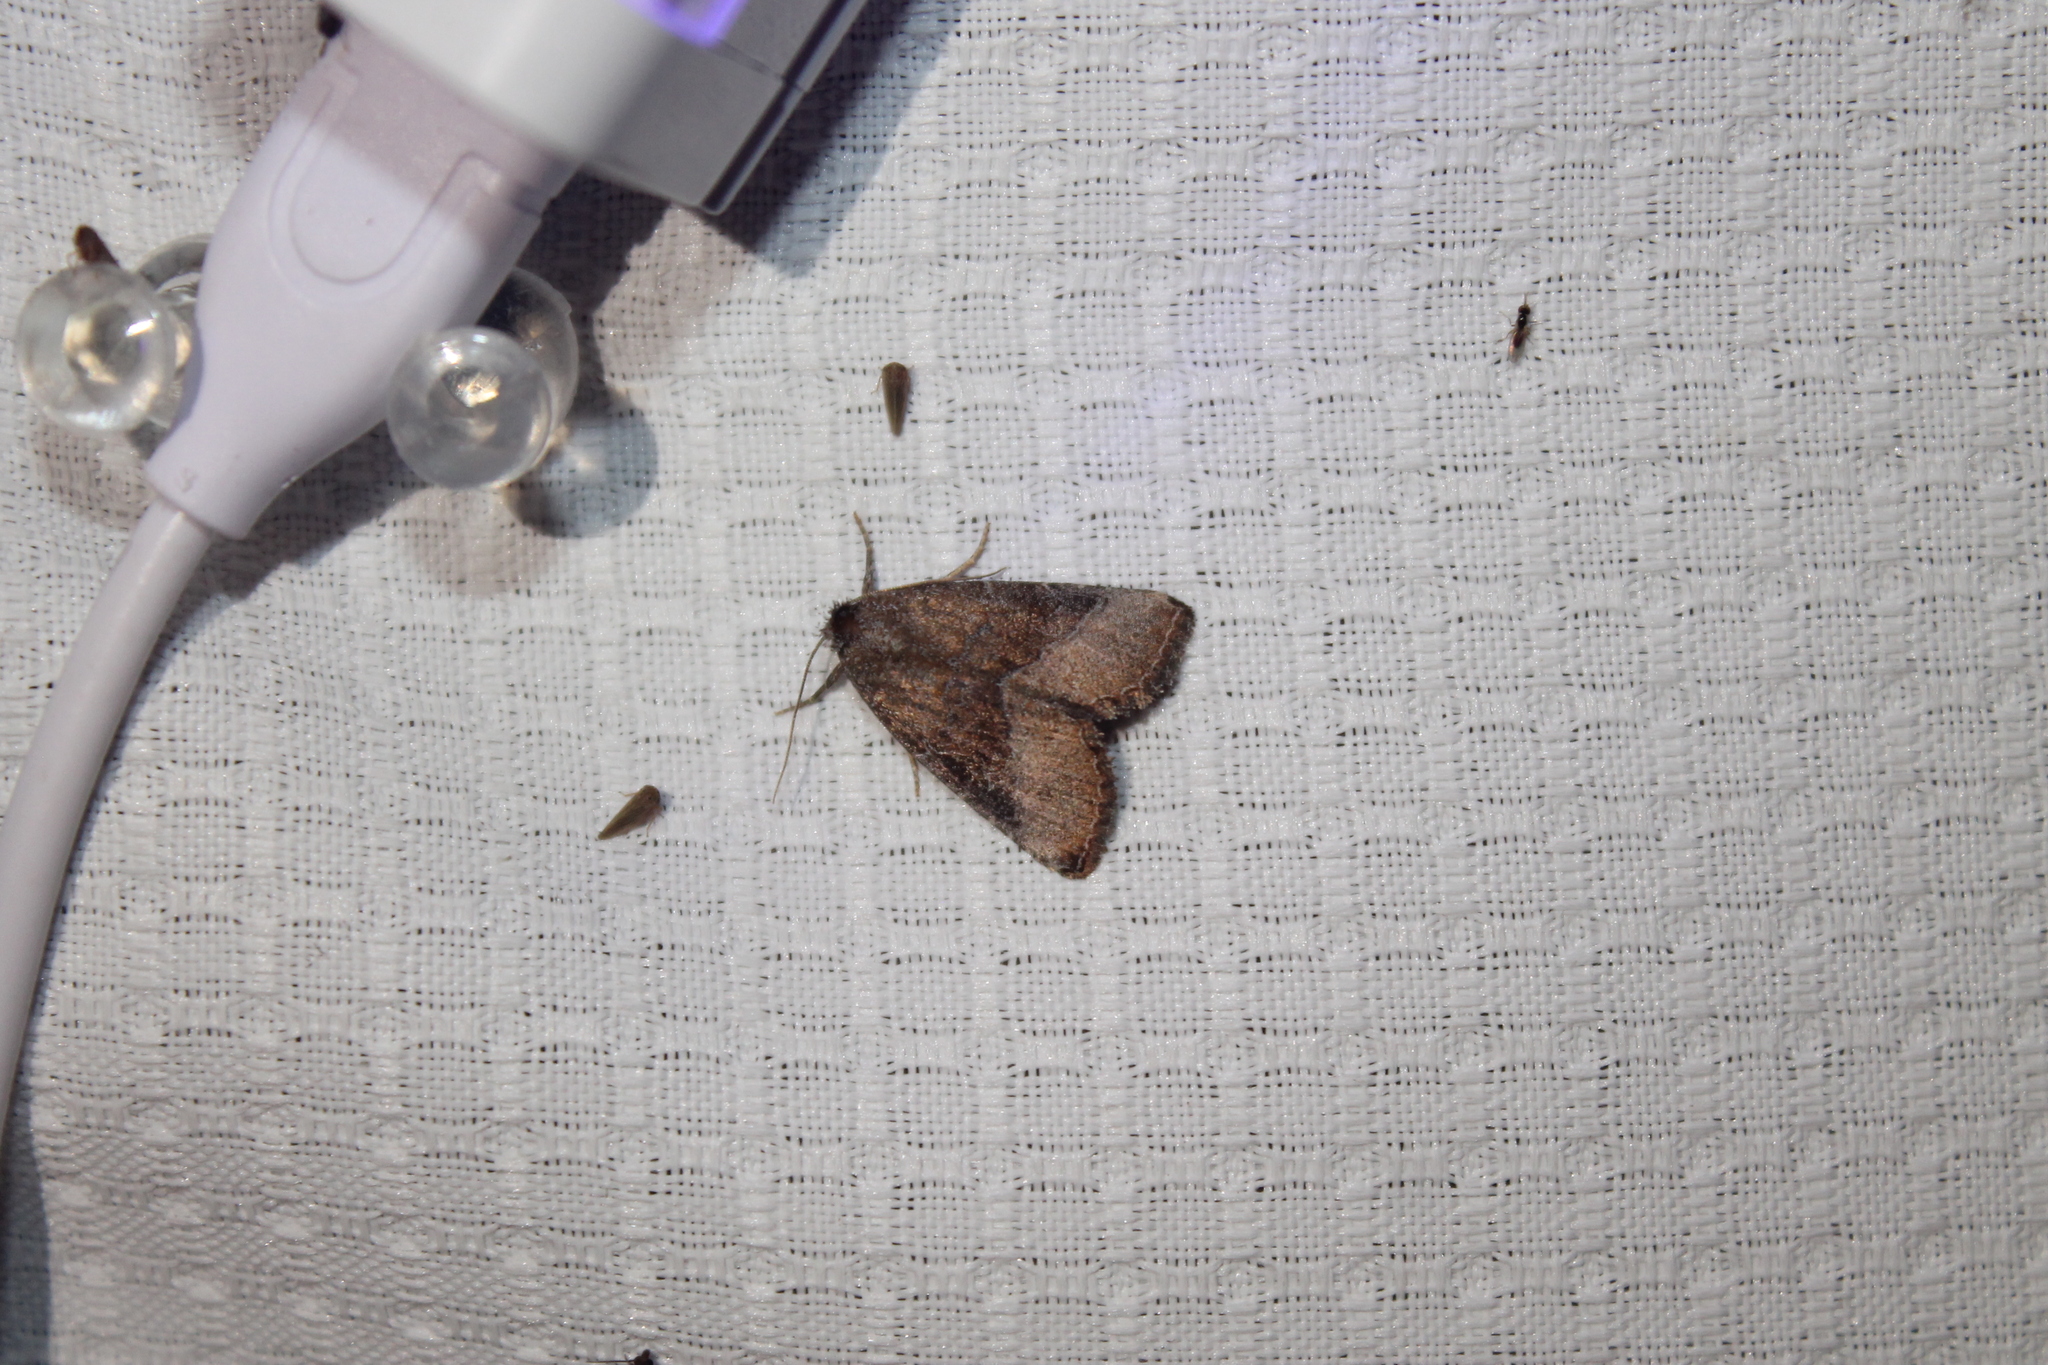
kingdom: Animalia
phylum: Arthropoda
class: Insecta
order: Lepidoptera
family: Noctuidae
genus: Ogdoconta
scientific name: Ogdoconta cinereola
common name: Common pinkband
